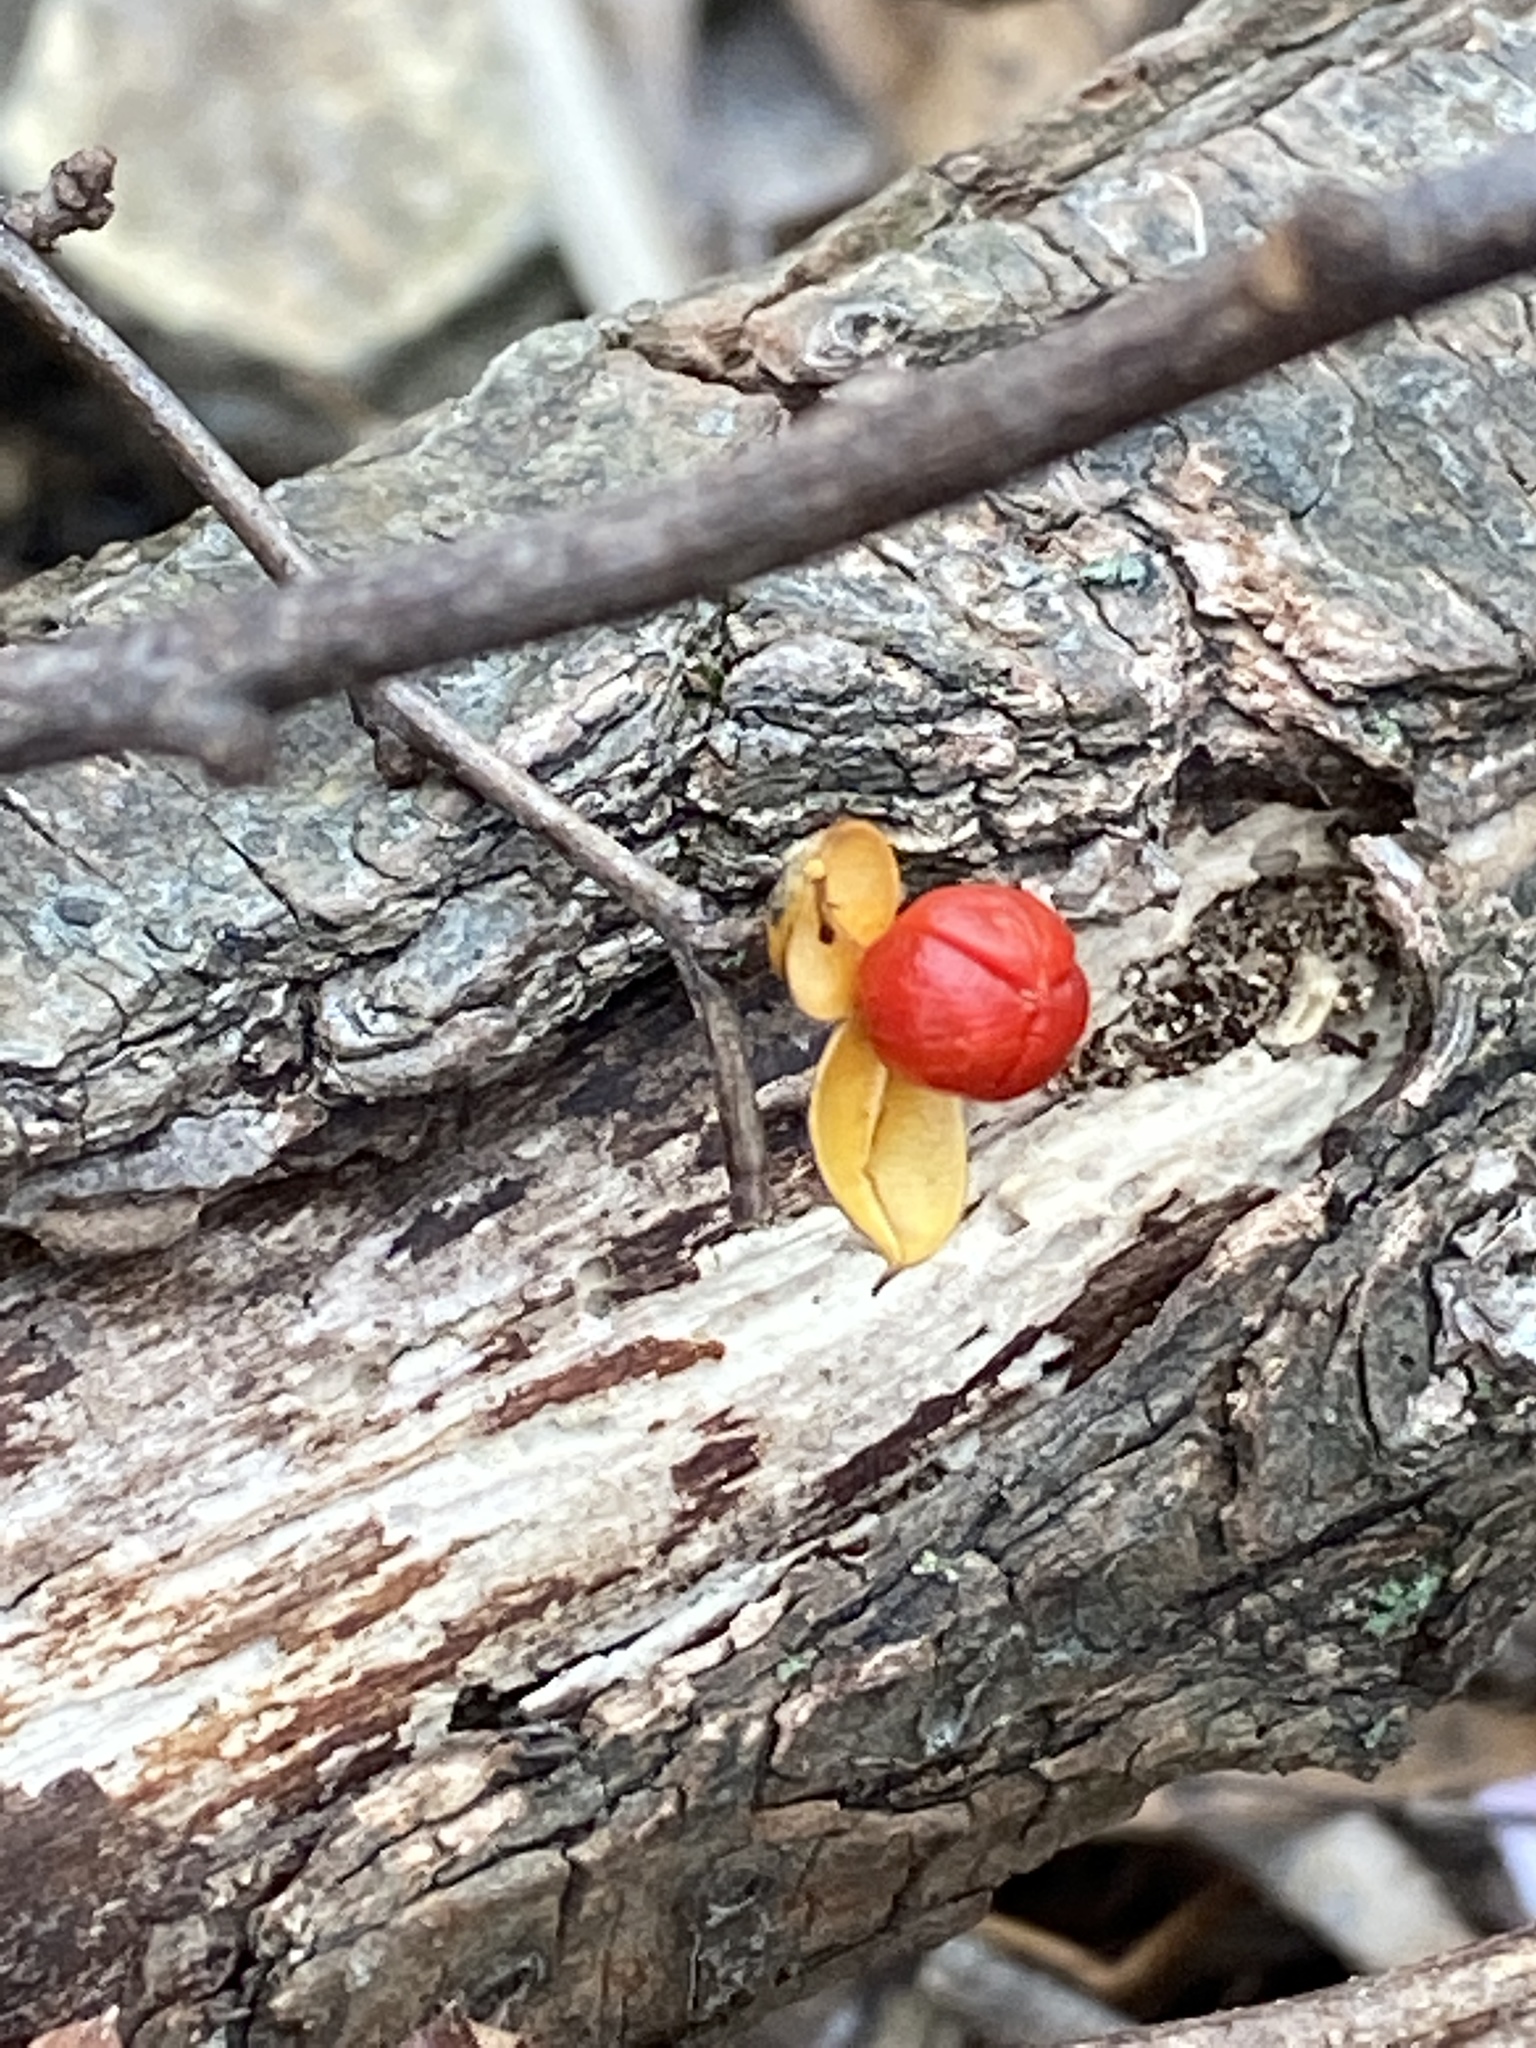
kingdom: Plantae
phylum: Tracheophyta
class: Magnoliopsida
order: Celastrales
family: Celastraceae
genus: Celastrus
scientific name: Celastrus orbiculatus
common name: Oriental bittersweet
